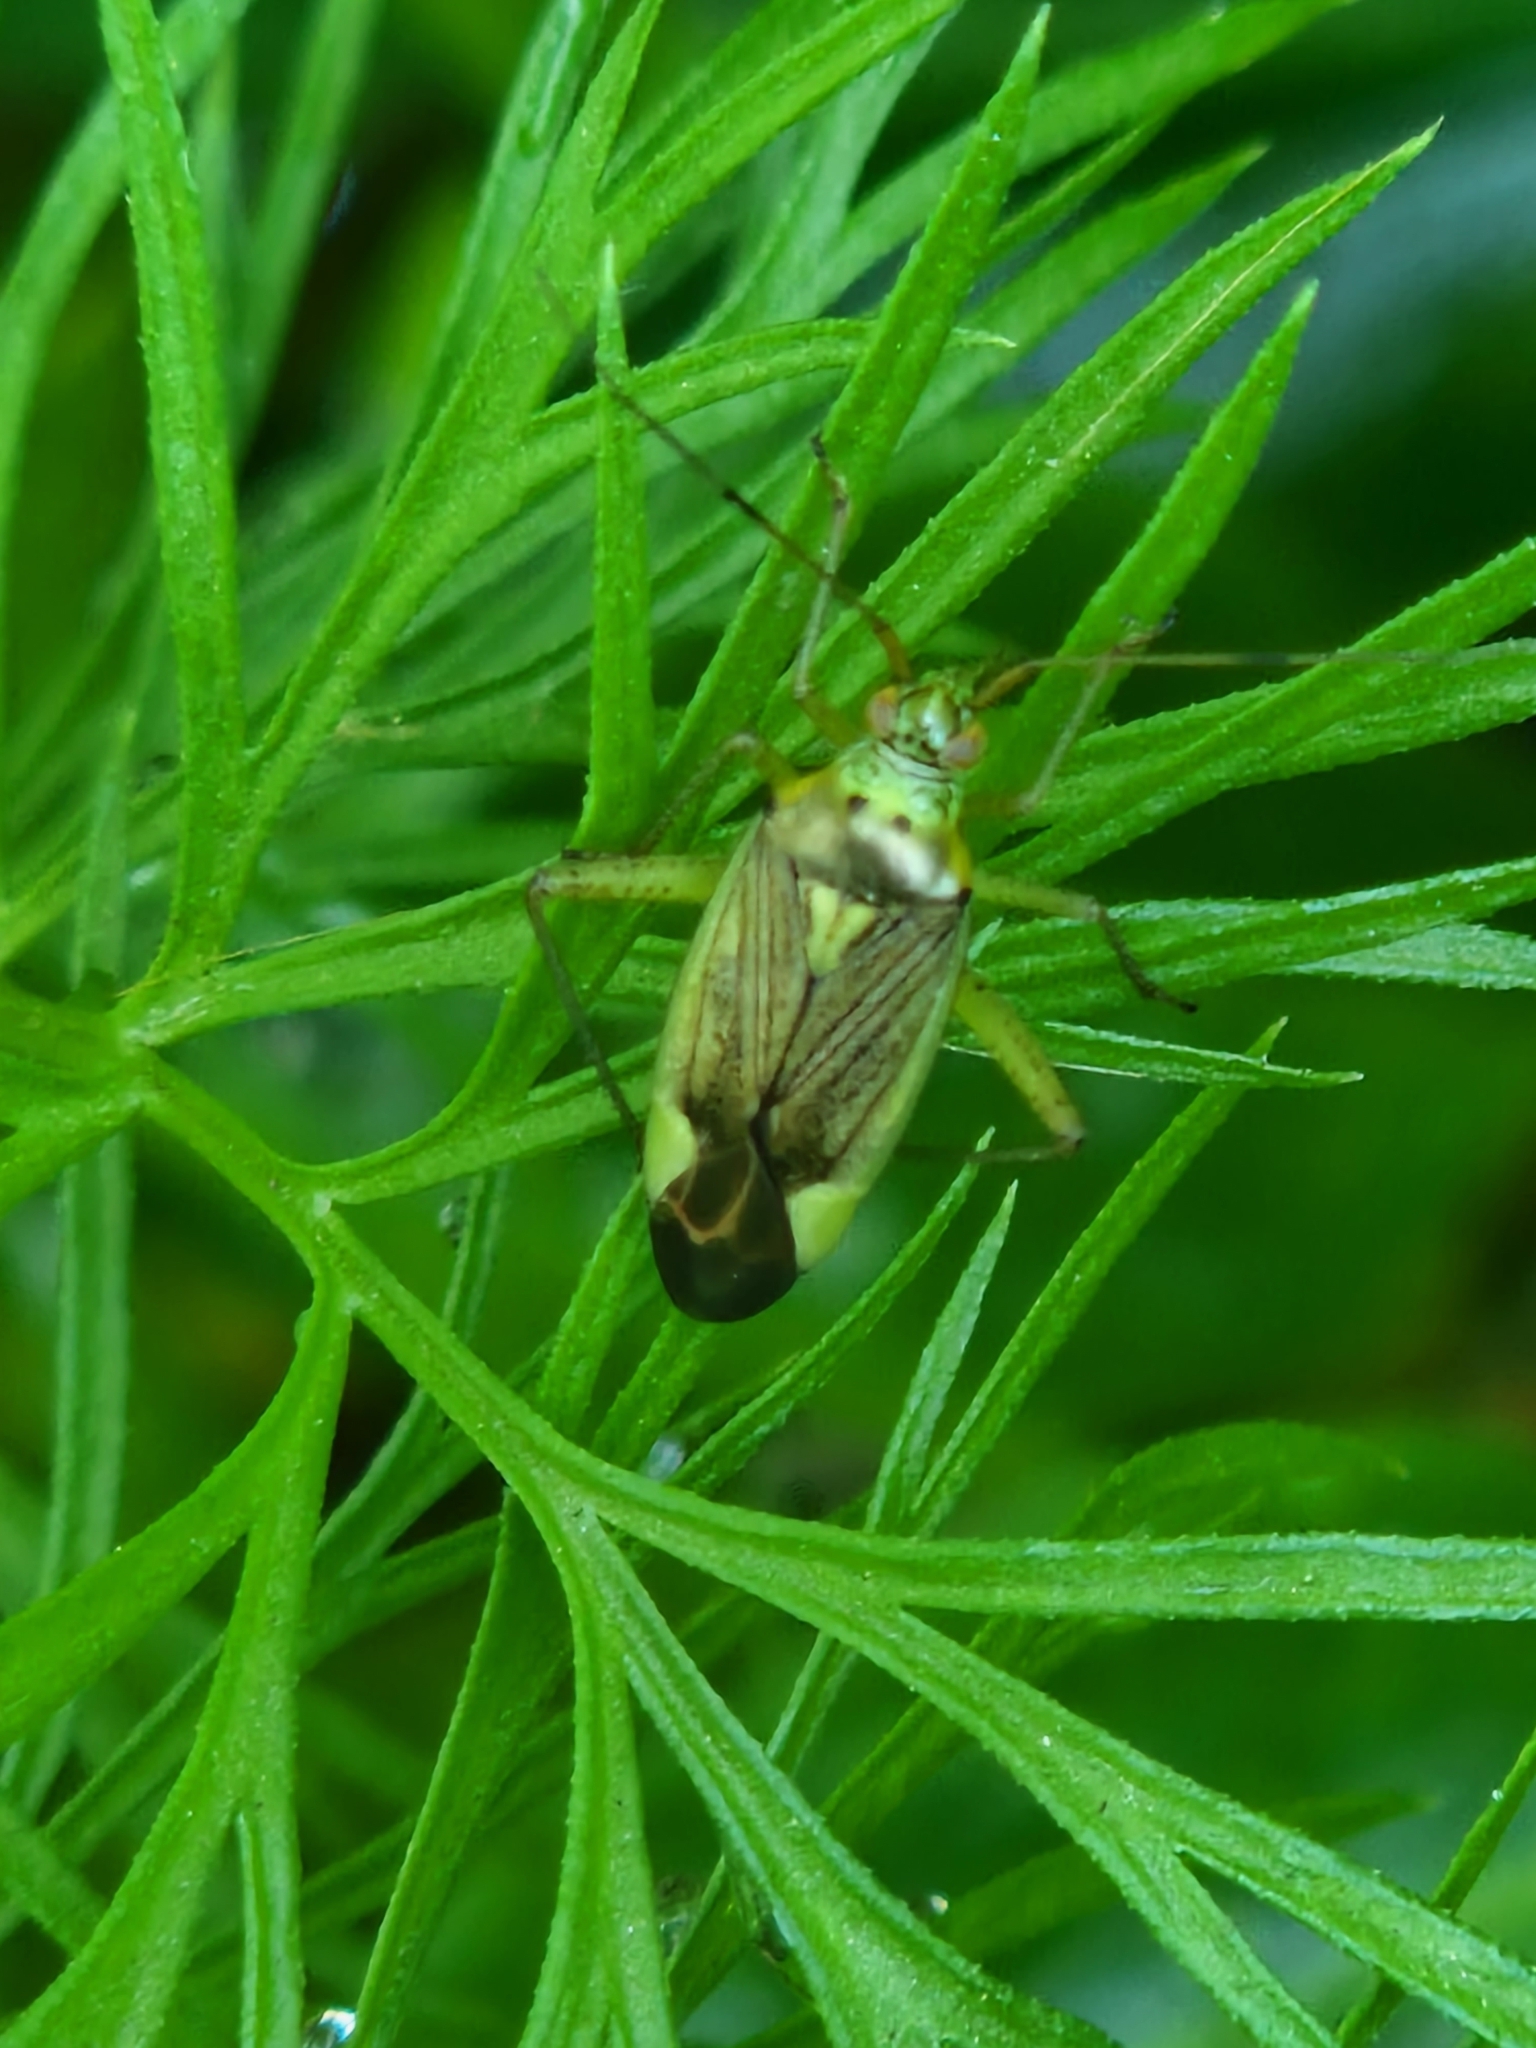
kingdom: Animalia
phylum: Arthropoda
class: Insecta
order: Hemiptera
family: Miridae
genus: Closterotomus
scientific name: Closterotomus trivialis
